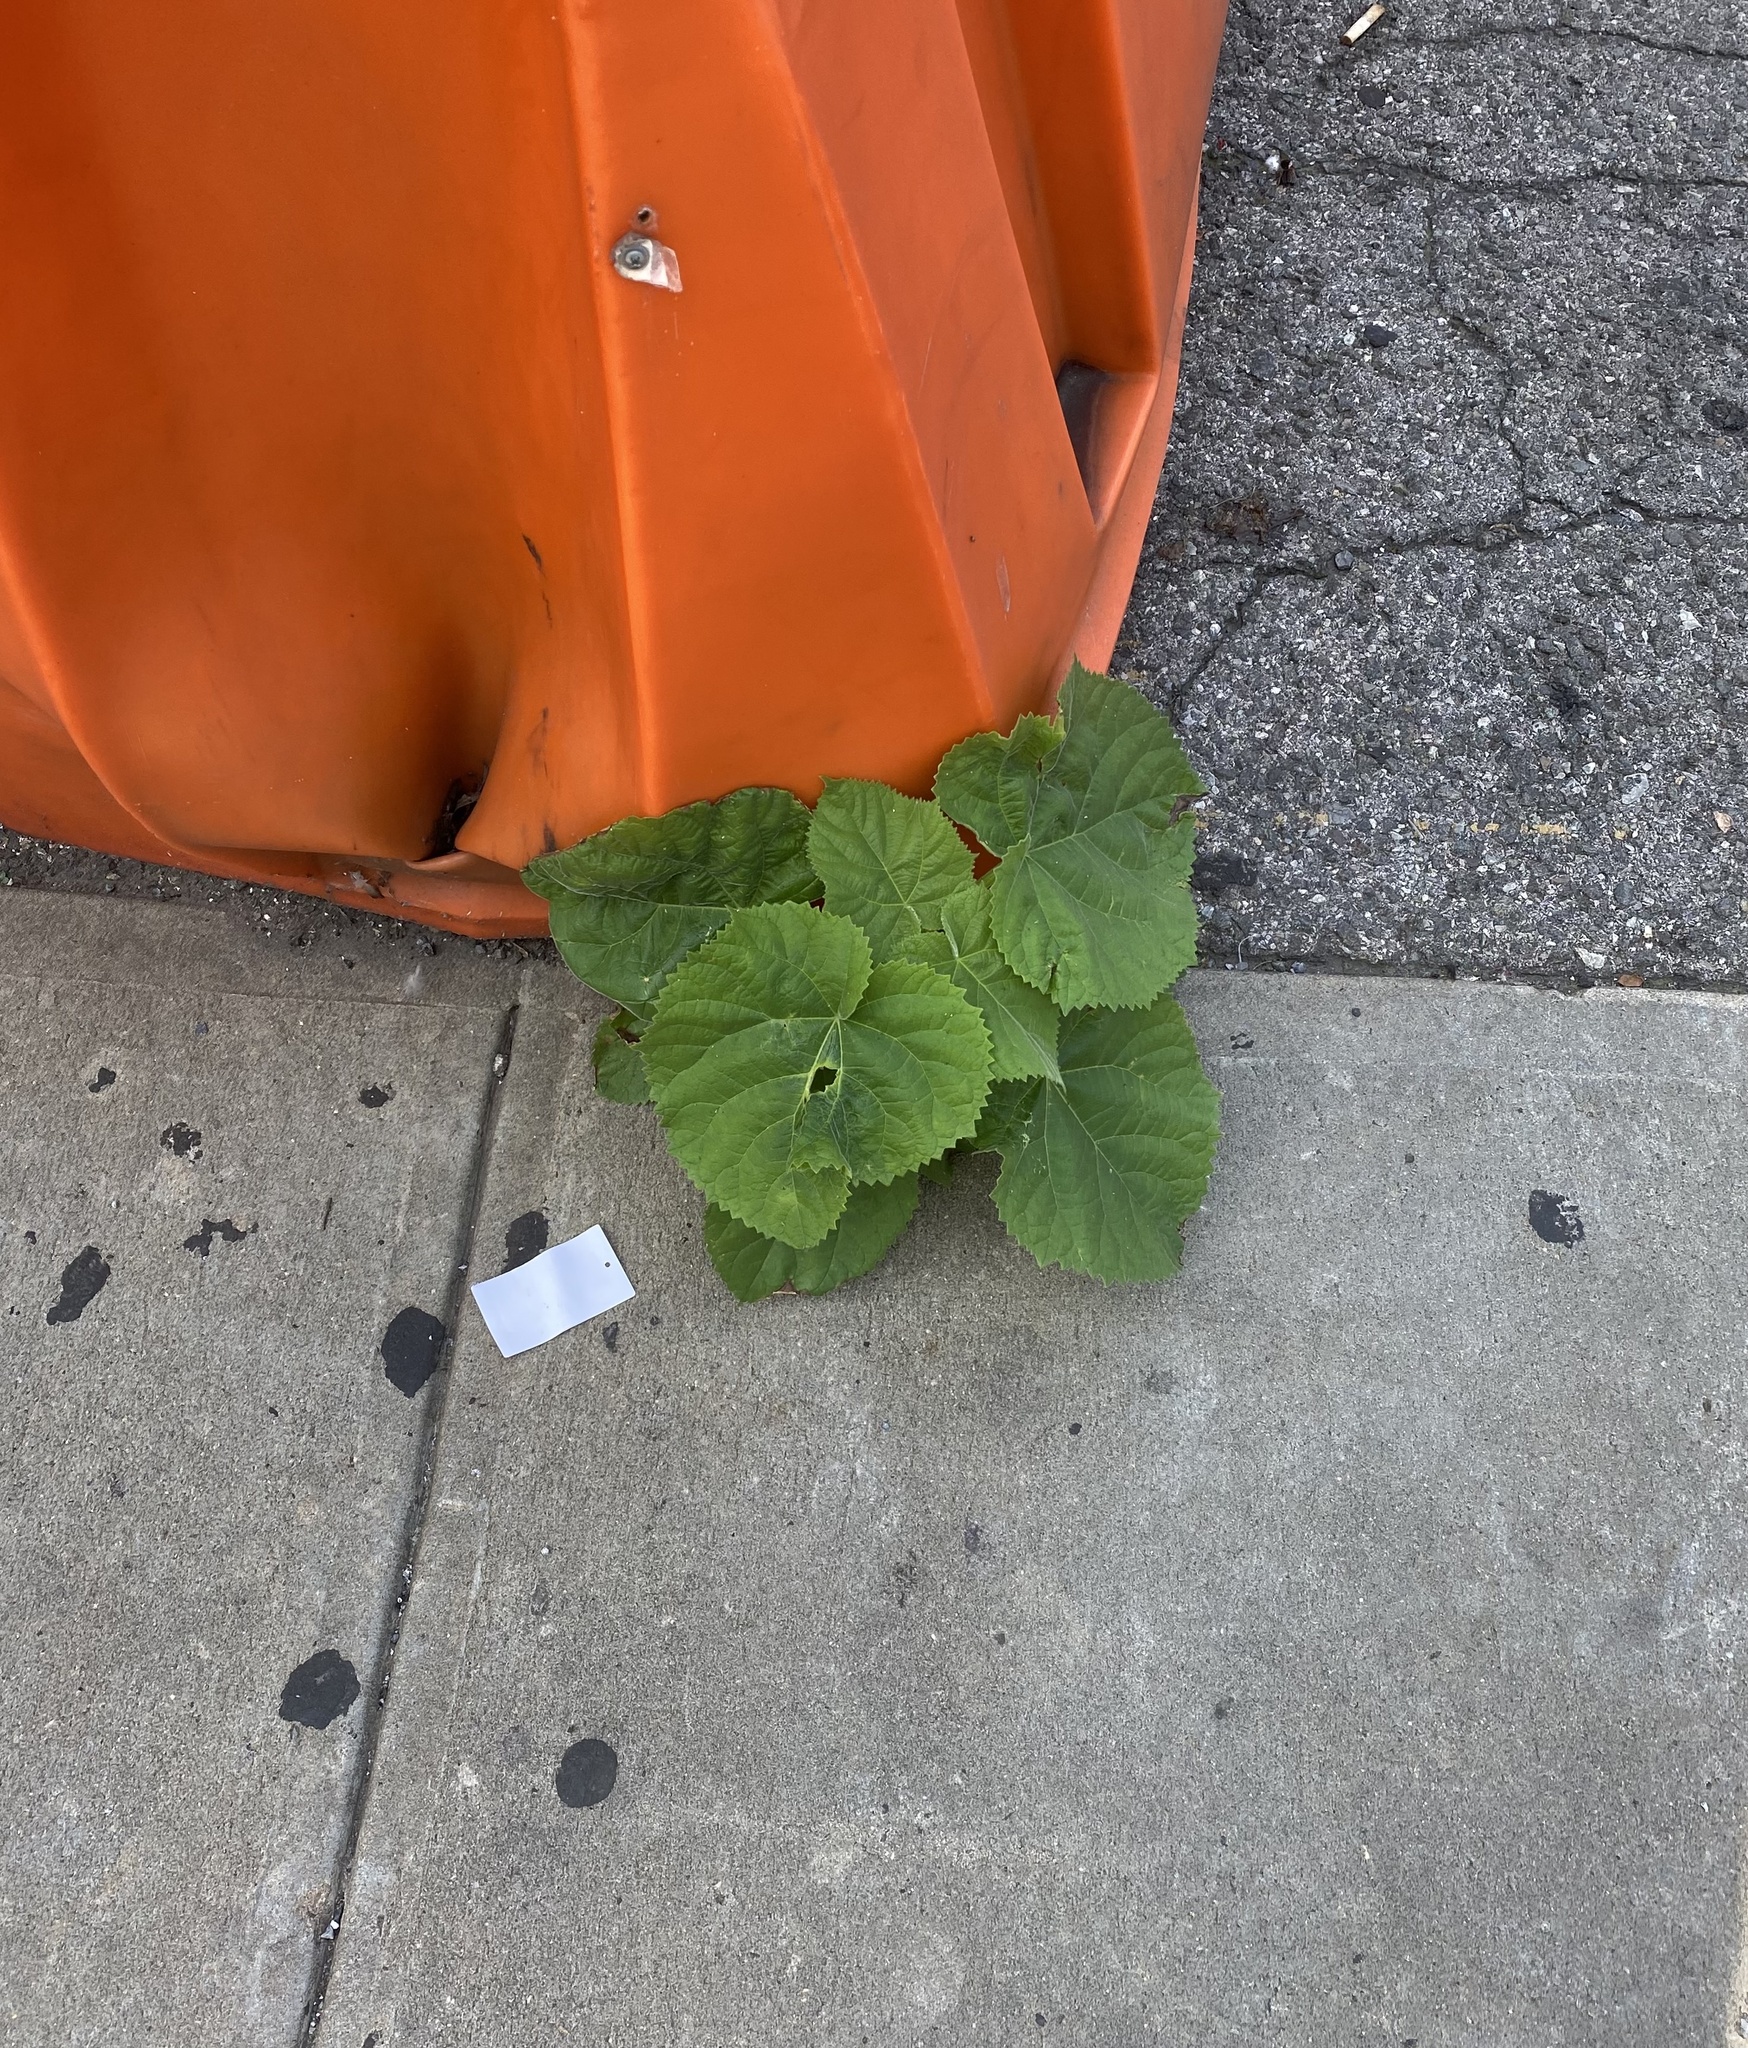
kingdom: Plantae
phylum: Tracheophyta
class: Magnoliopsida
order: Lamiales
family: Paulowniaceae
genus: Paulownia
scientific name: Paulownia tomentosa
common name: Foxglove-tree
